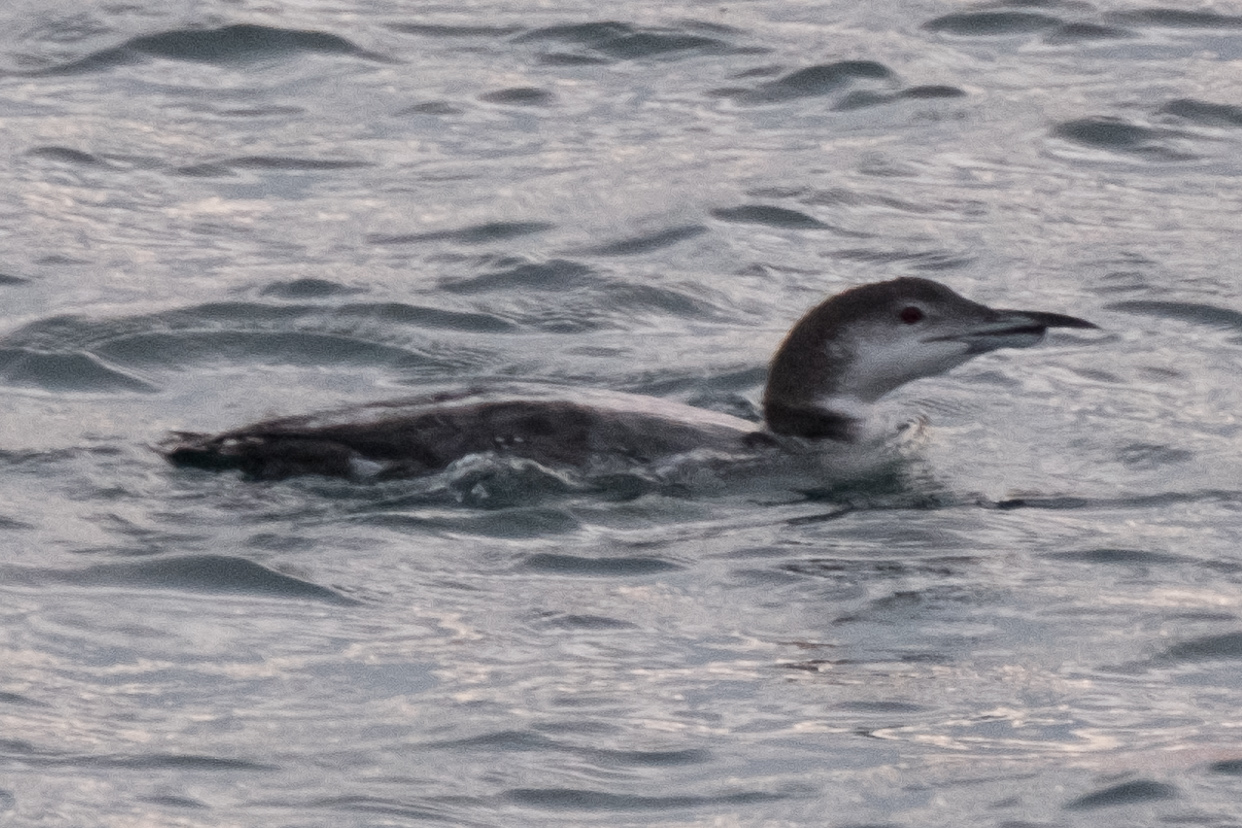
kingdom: Animalia
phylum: Chordata
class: Aves
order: Gaviiformes
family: Gaviidae
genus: Gavia
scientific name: Gavia immer
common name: Common loon
